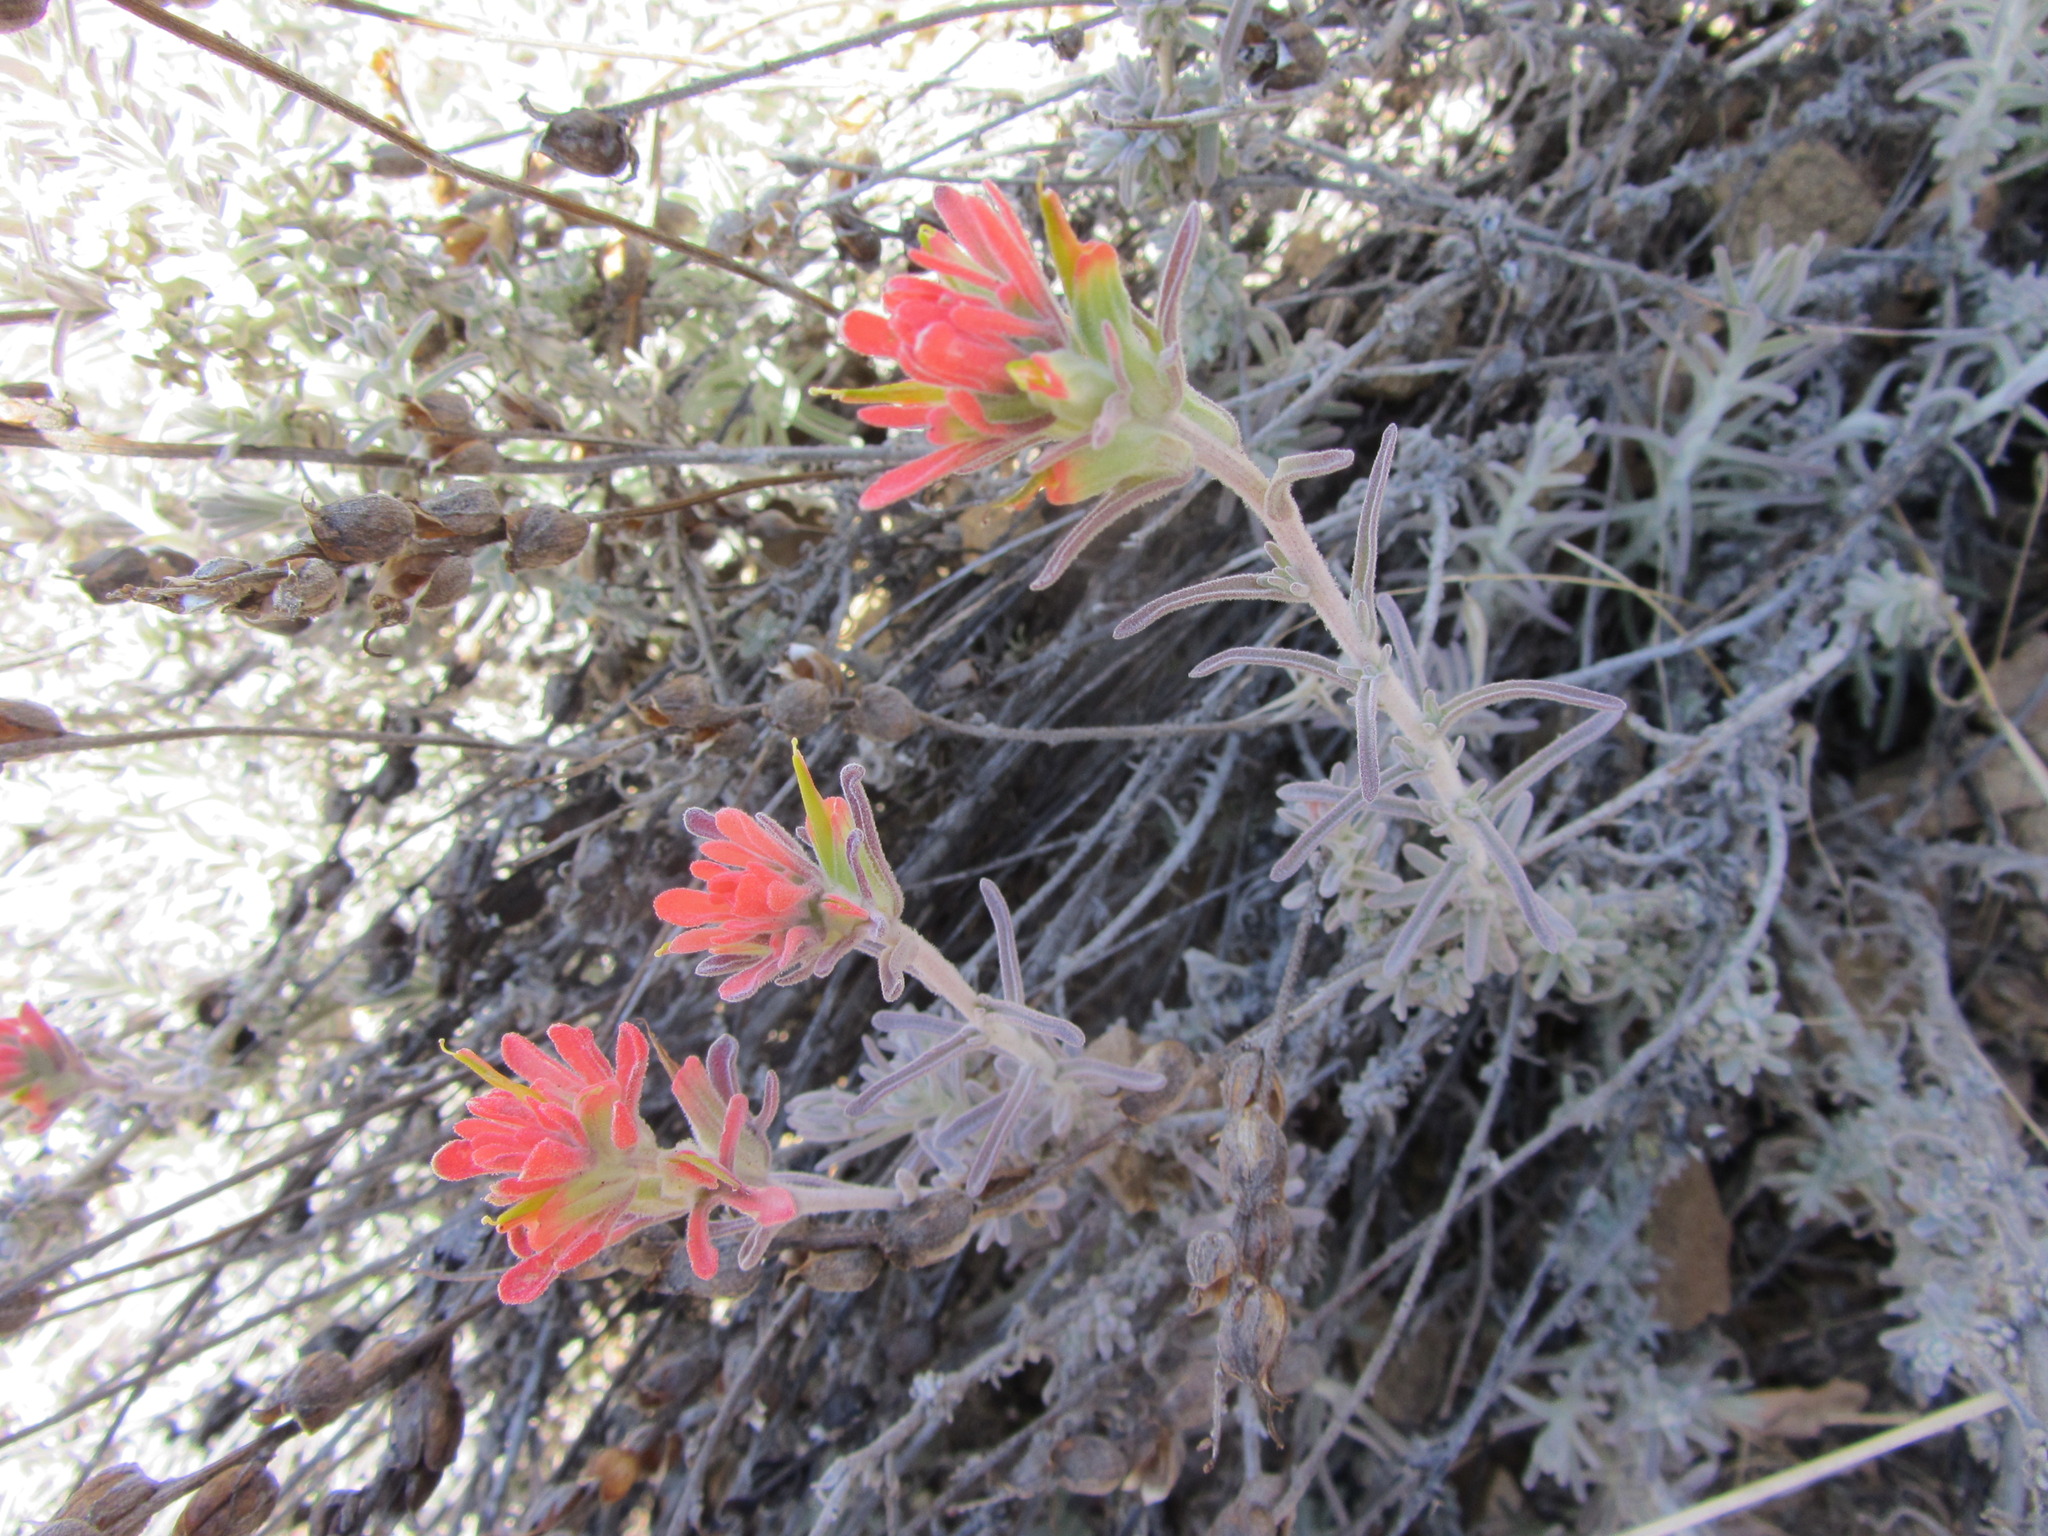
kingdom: Plantae
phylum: Tracheophyta
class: Magnoliopsida
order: Lamiales
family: Orobanchaceae
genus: Castilleja
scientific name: Castilleja foliolosa
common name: Woolly indian paintbrush
